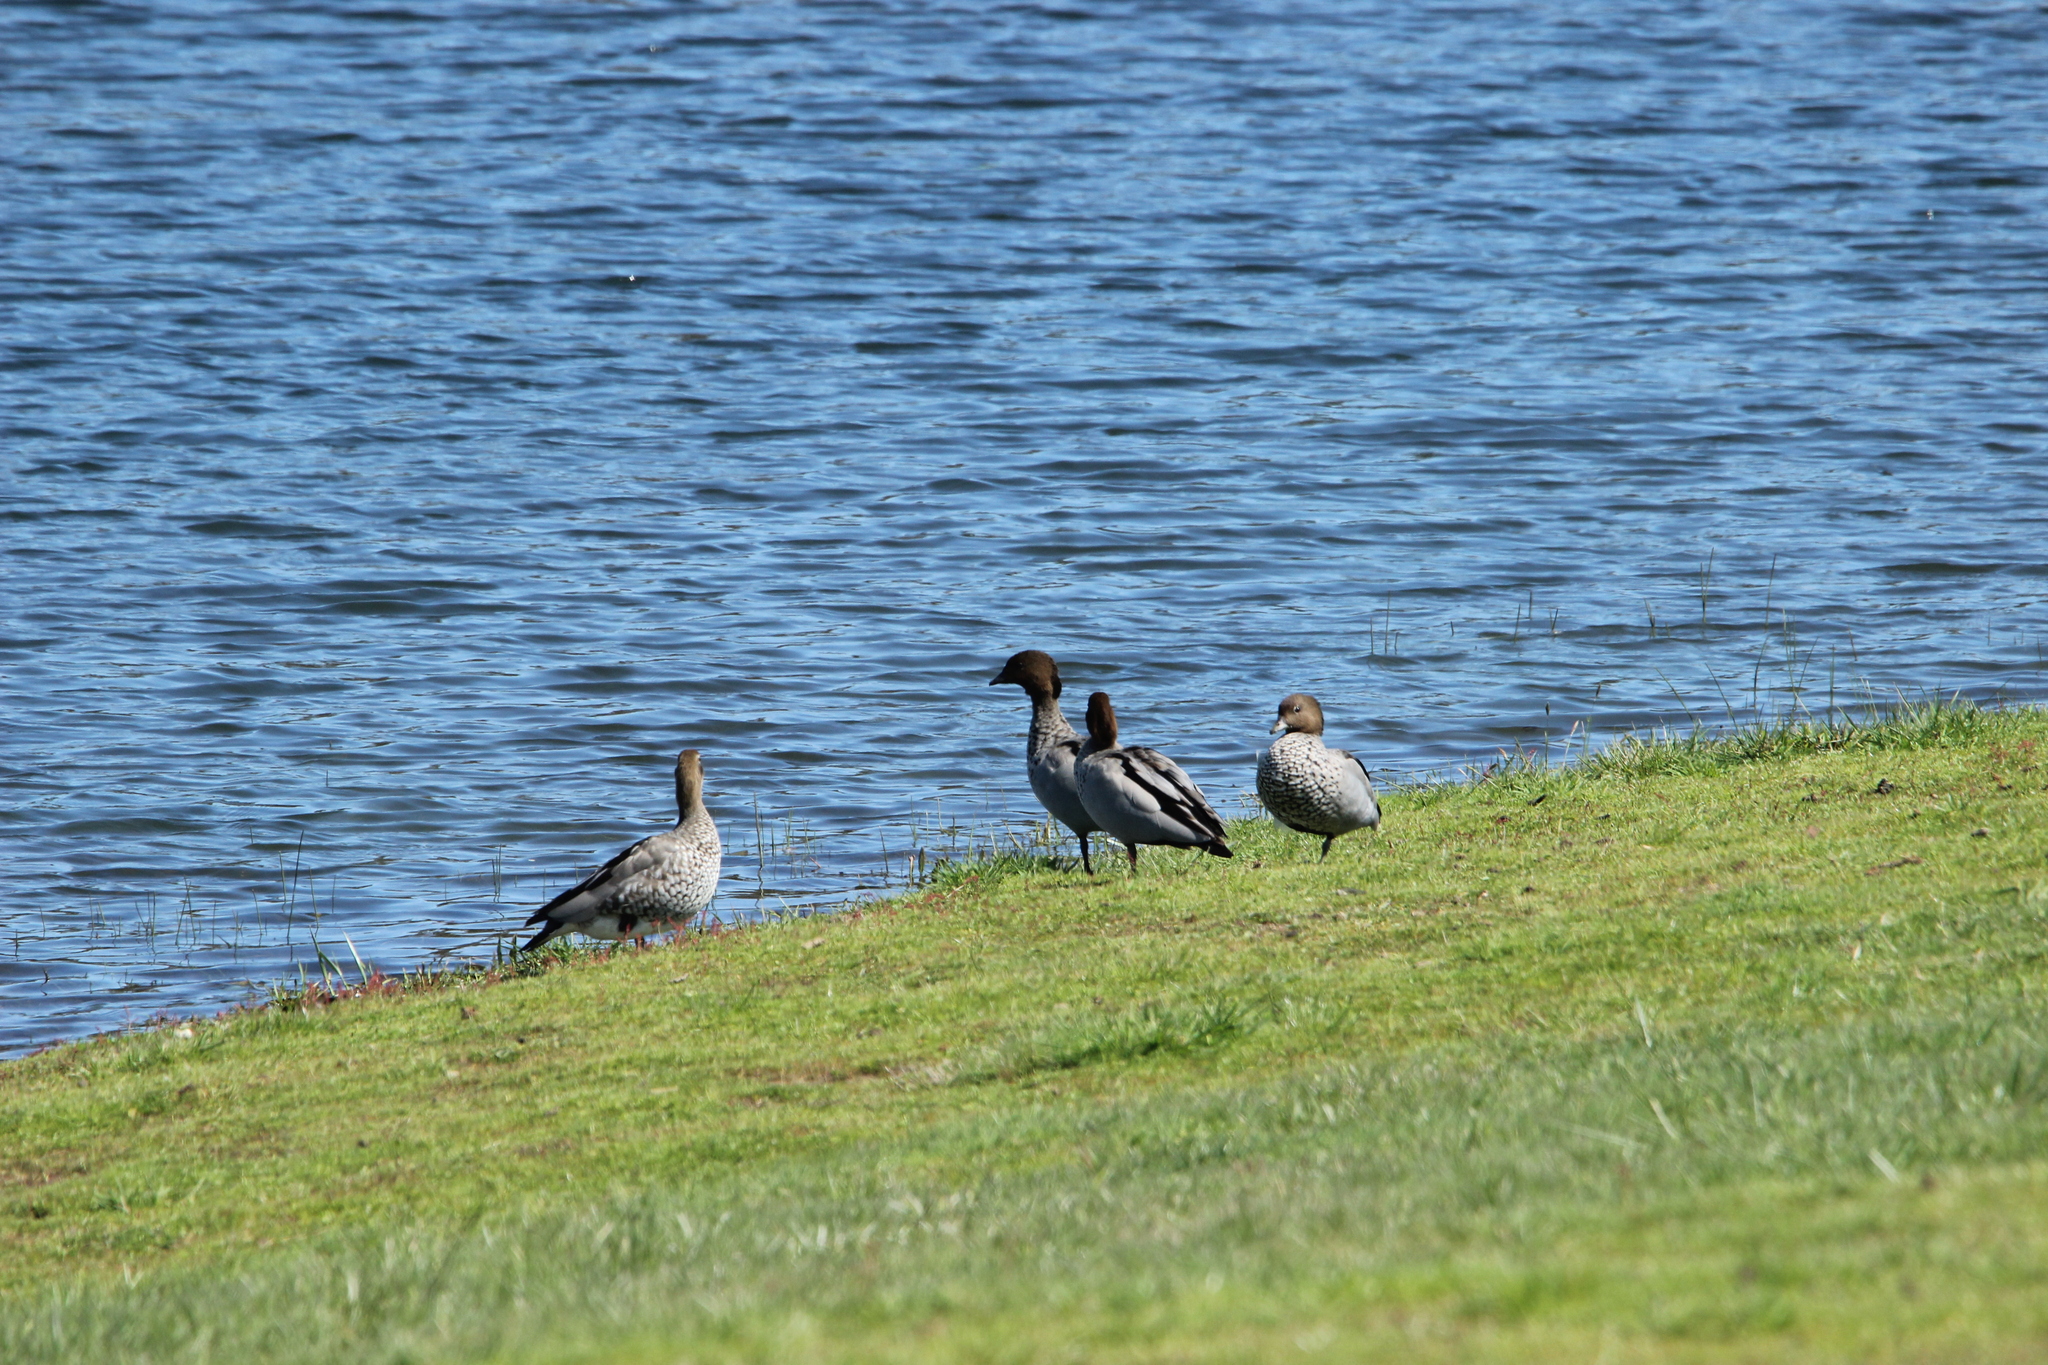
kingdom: Animalia
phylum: Chordata
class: Aves
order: Anseriformes
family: Anatidae
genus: Chenonetta
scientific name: Chenonetta jubata
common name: Maned duck
